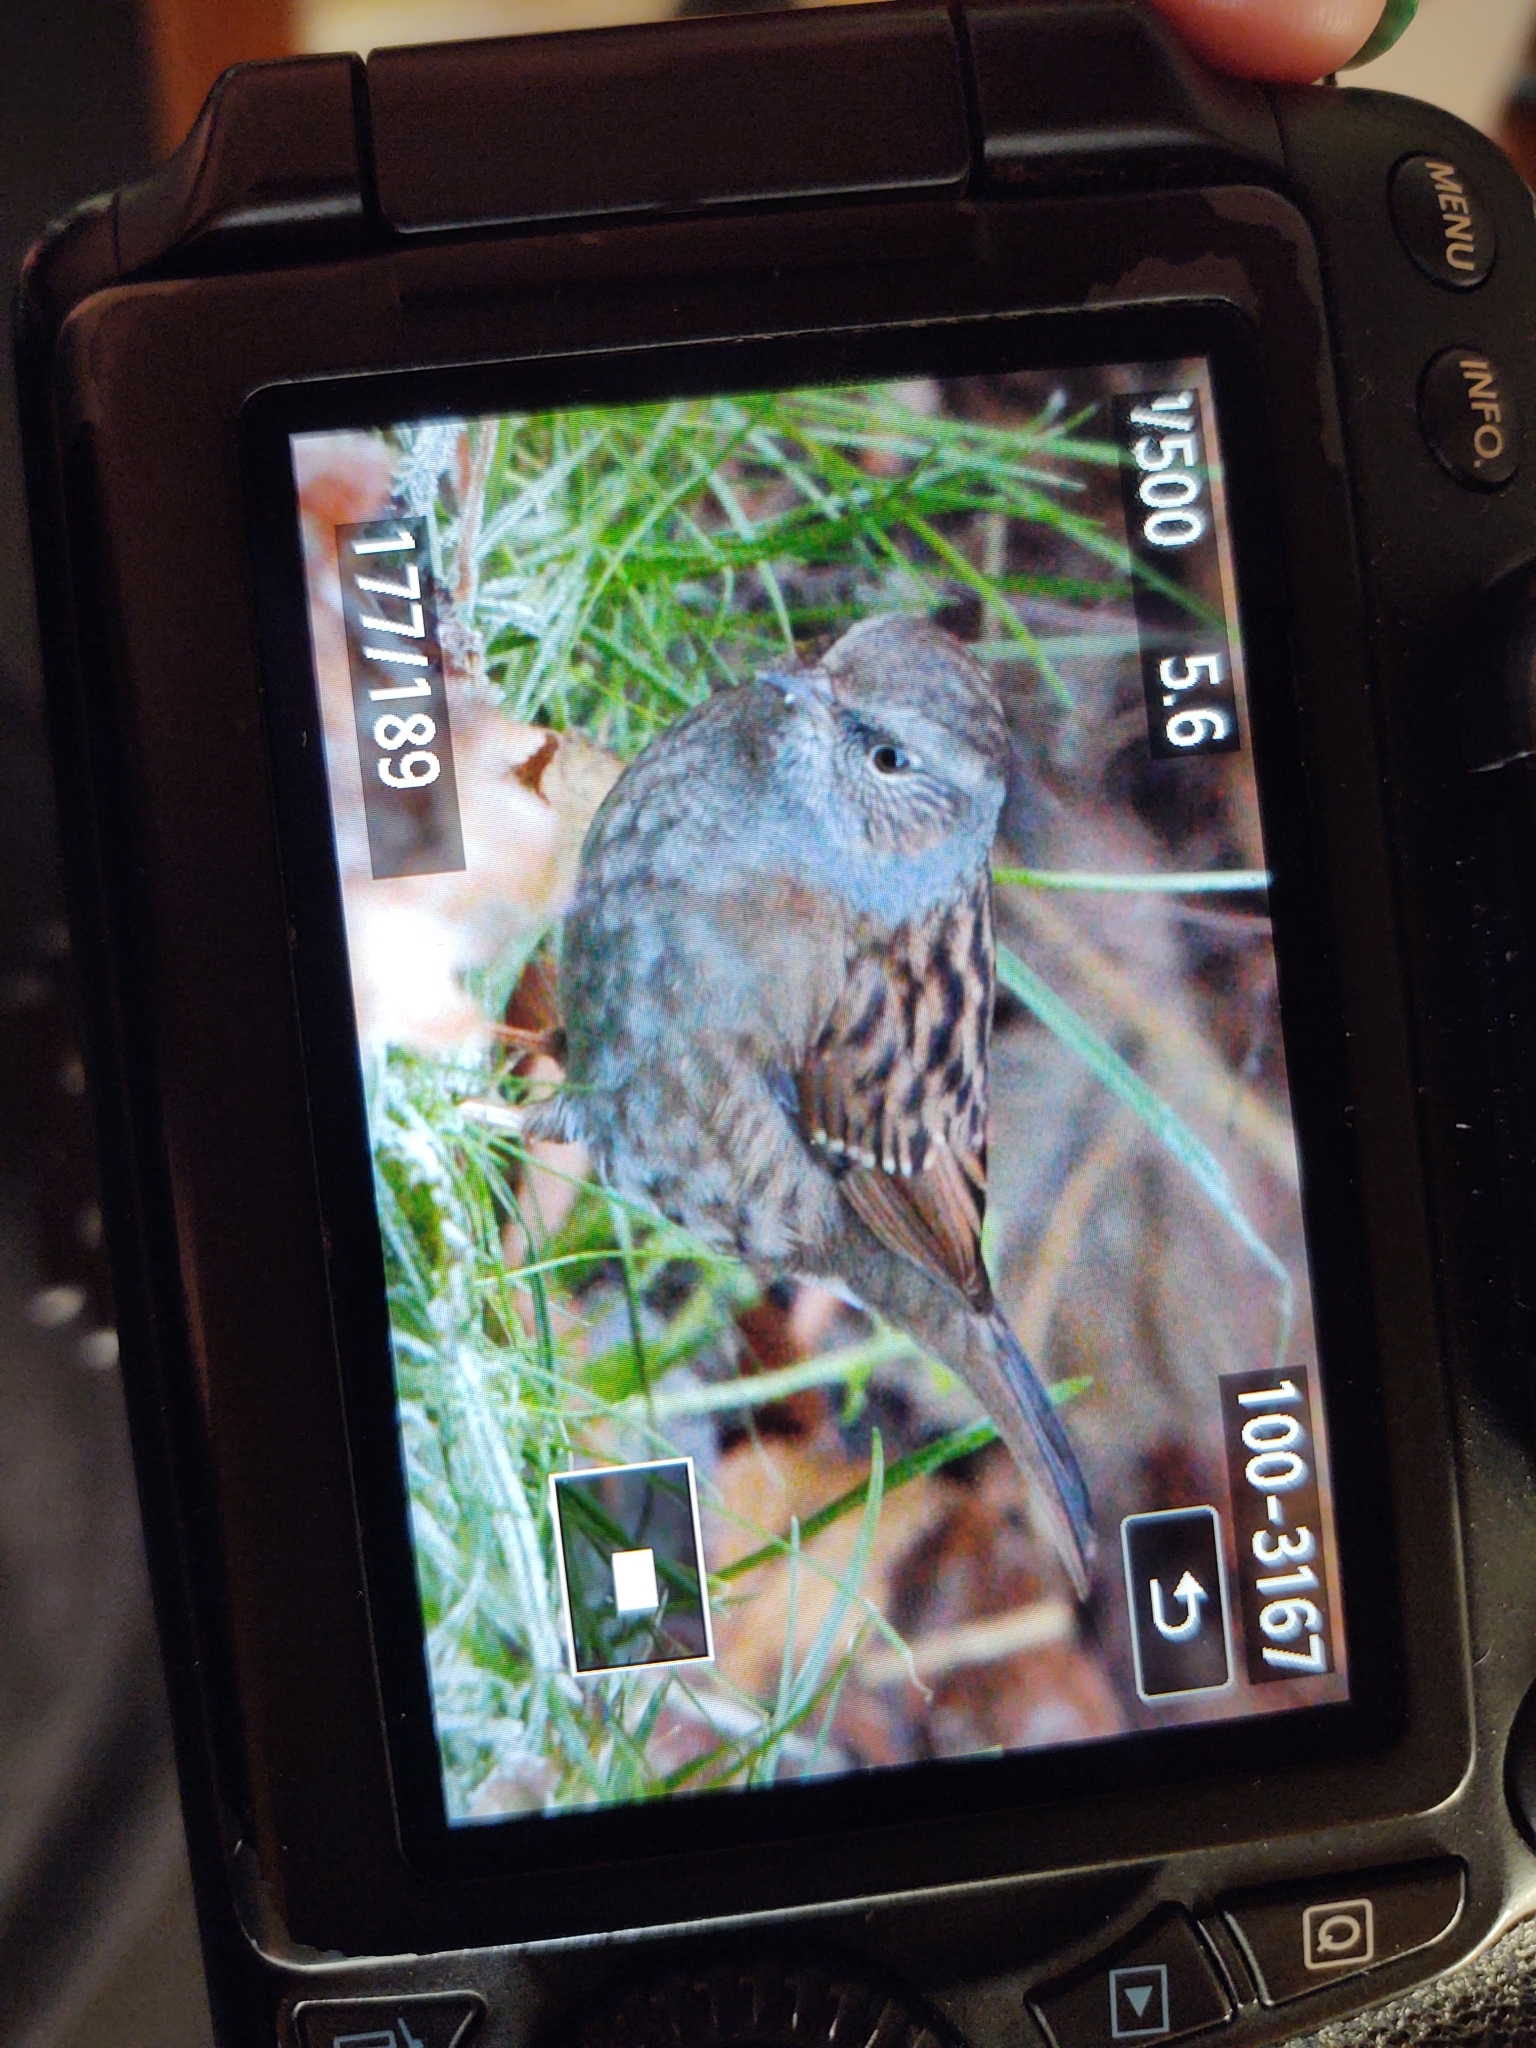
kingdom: Animalia
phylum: Chordata
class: Aves
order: Passeriformes
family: Prunellidae
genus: Prunella
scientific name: Prunella modularis
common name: Dunnock
